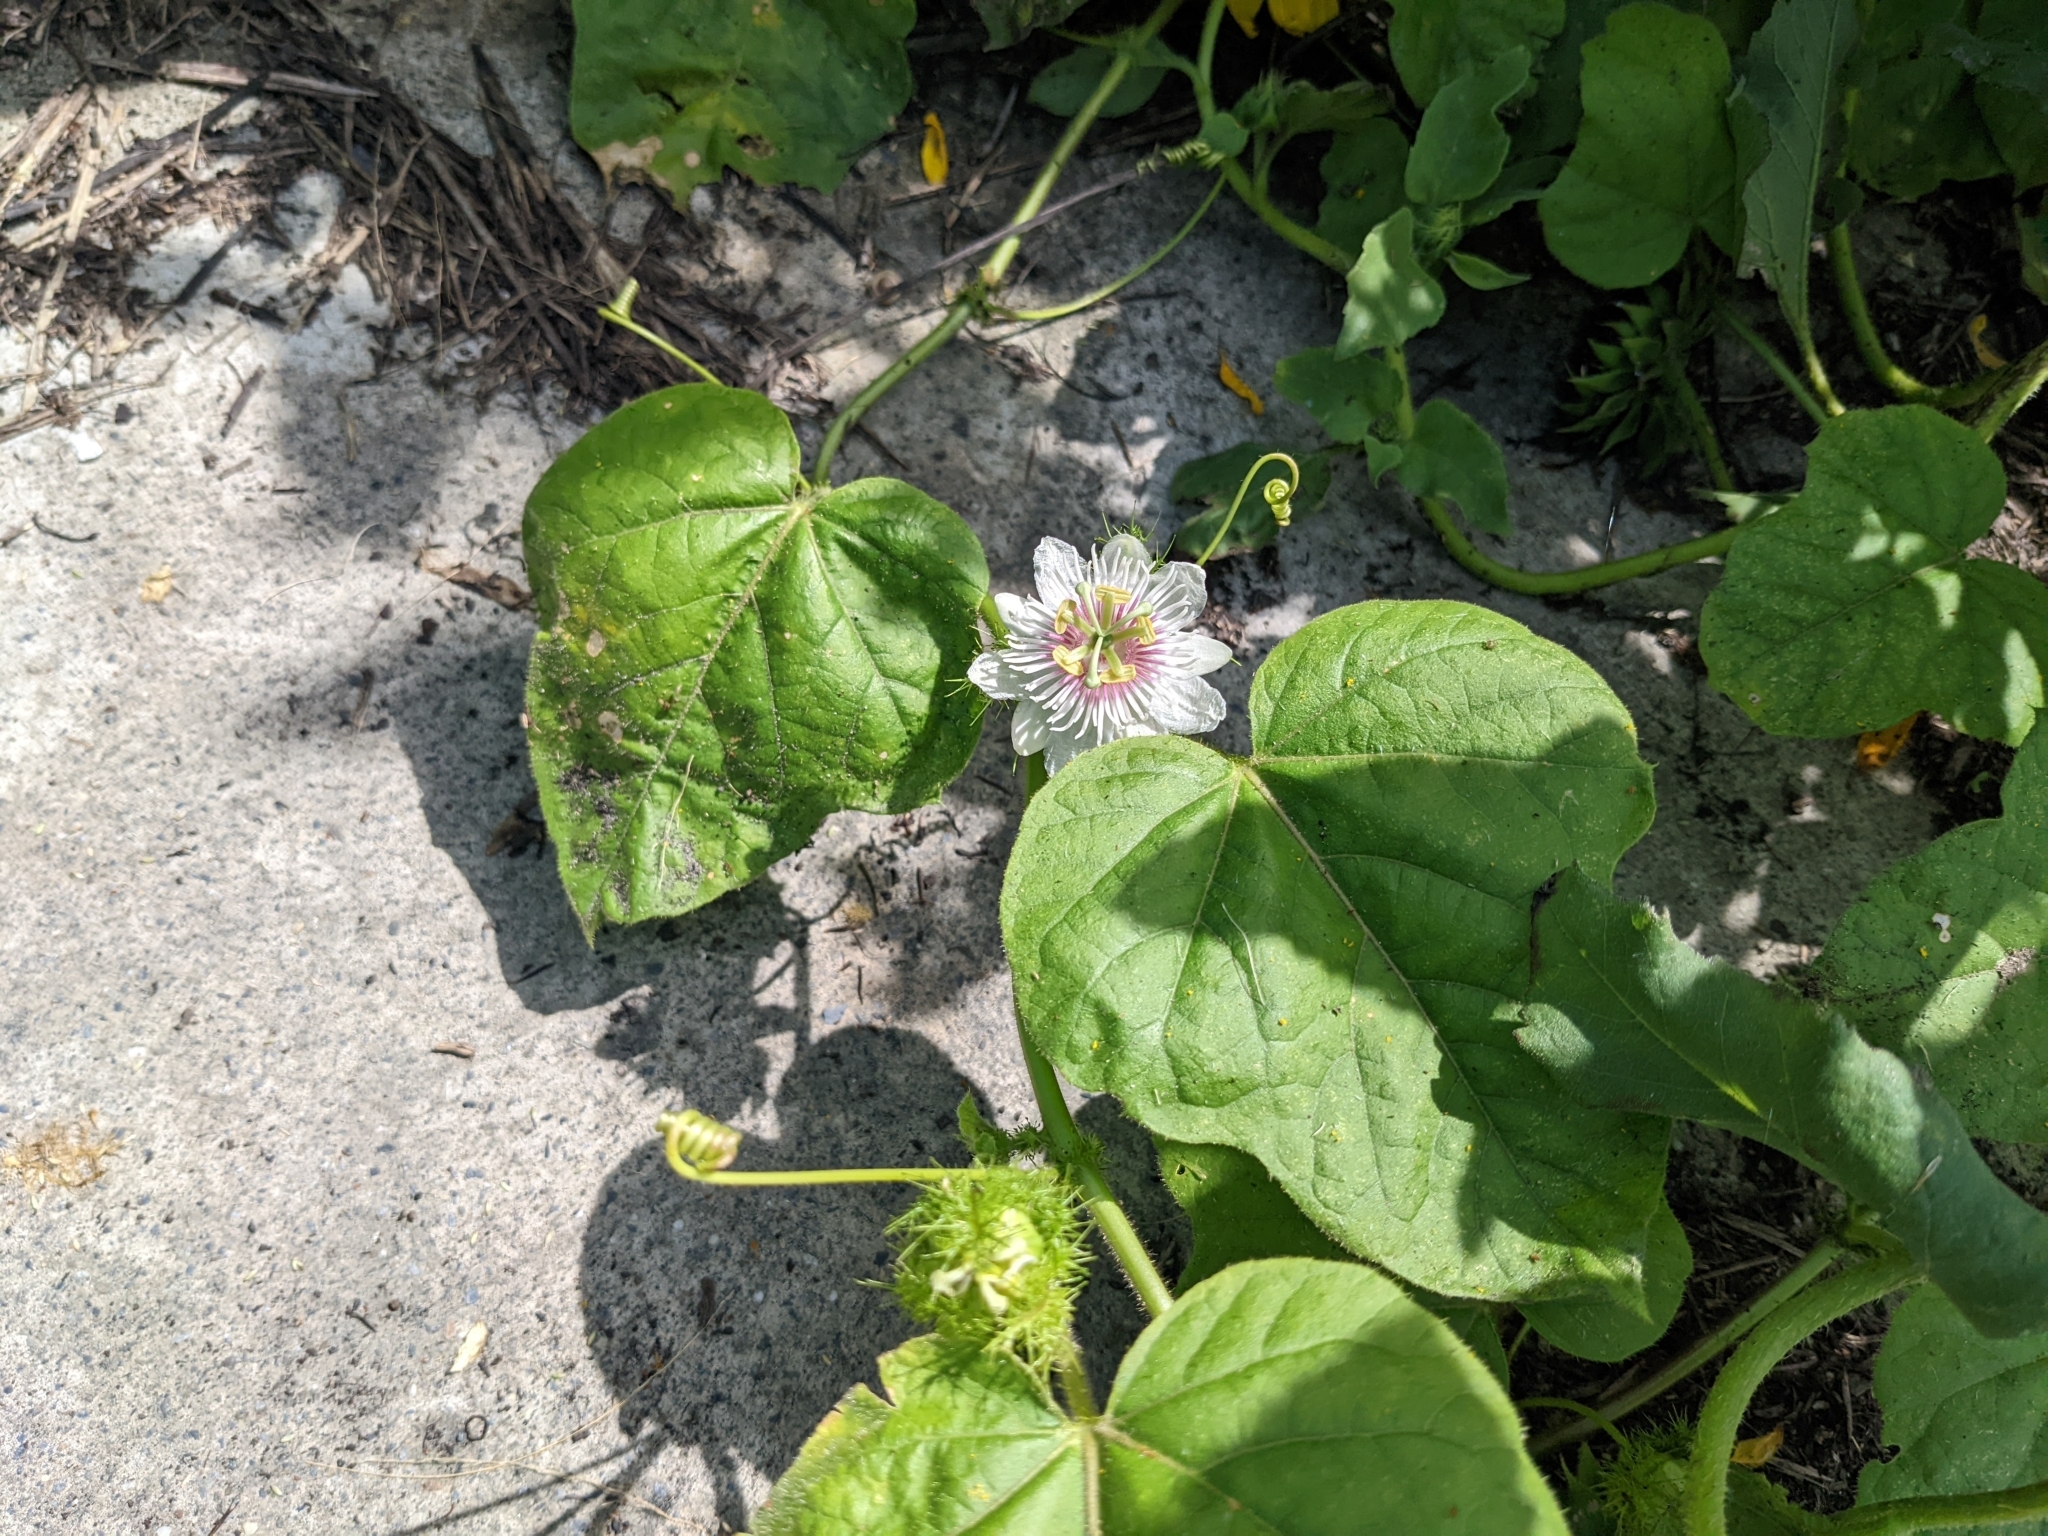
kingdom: Plantae
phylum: Tracheophyta
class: Magnoliopsida
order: Malpighiales
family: Passifloraceae
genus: Passiflora
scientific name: Passiflora vesicaria
